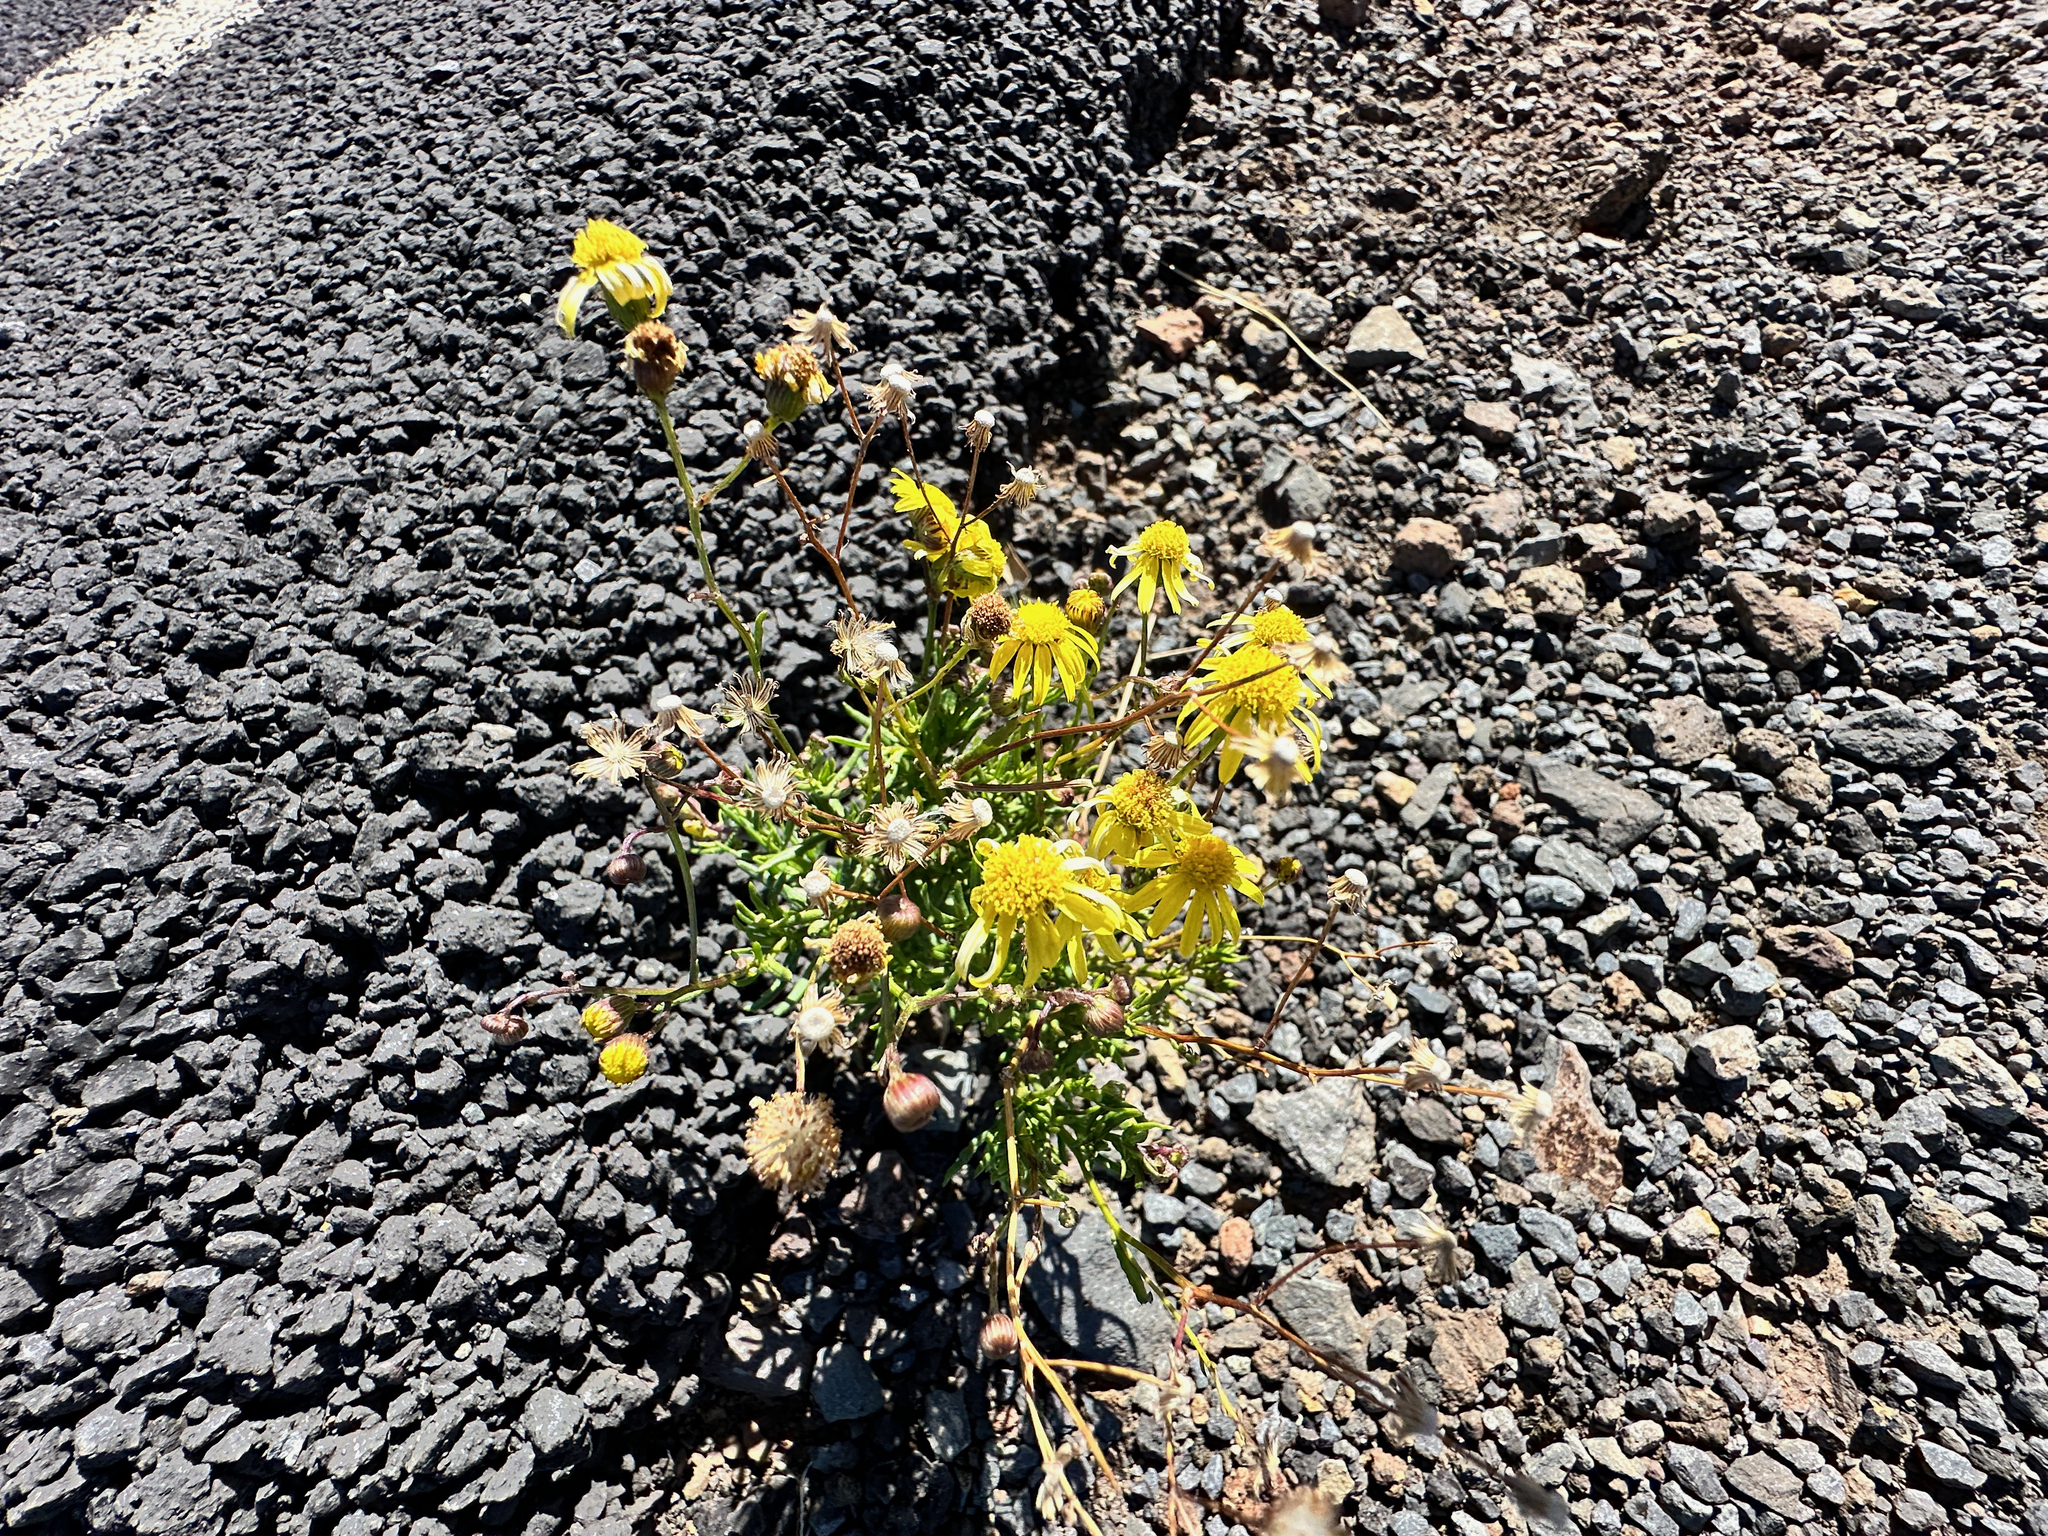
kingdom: Plantae
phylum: Tracheophyta
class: Magnoliopsida
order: Asterales
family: Asteraceae
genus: Senecio
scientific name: Senecio madagascariensis
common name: Madagascar ragwort
